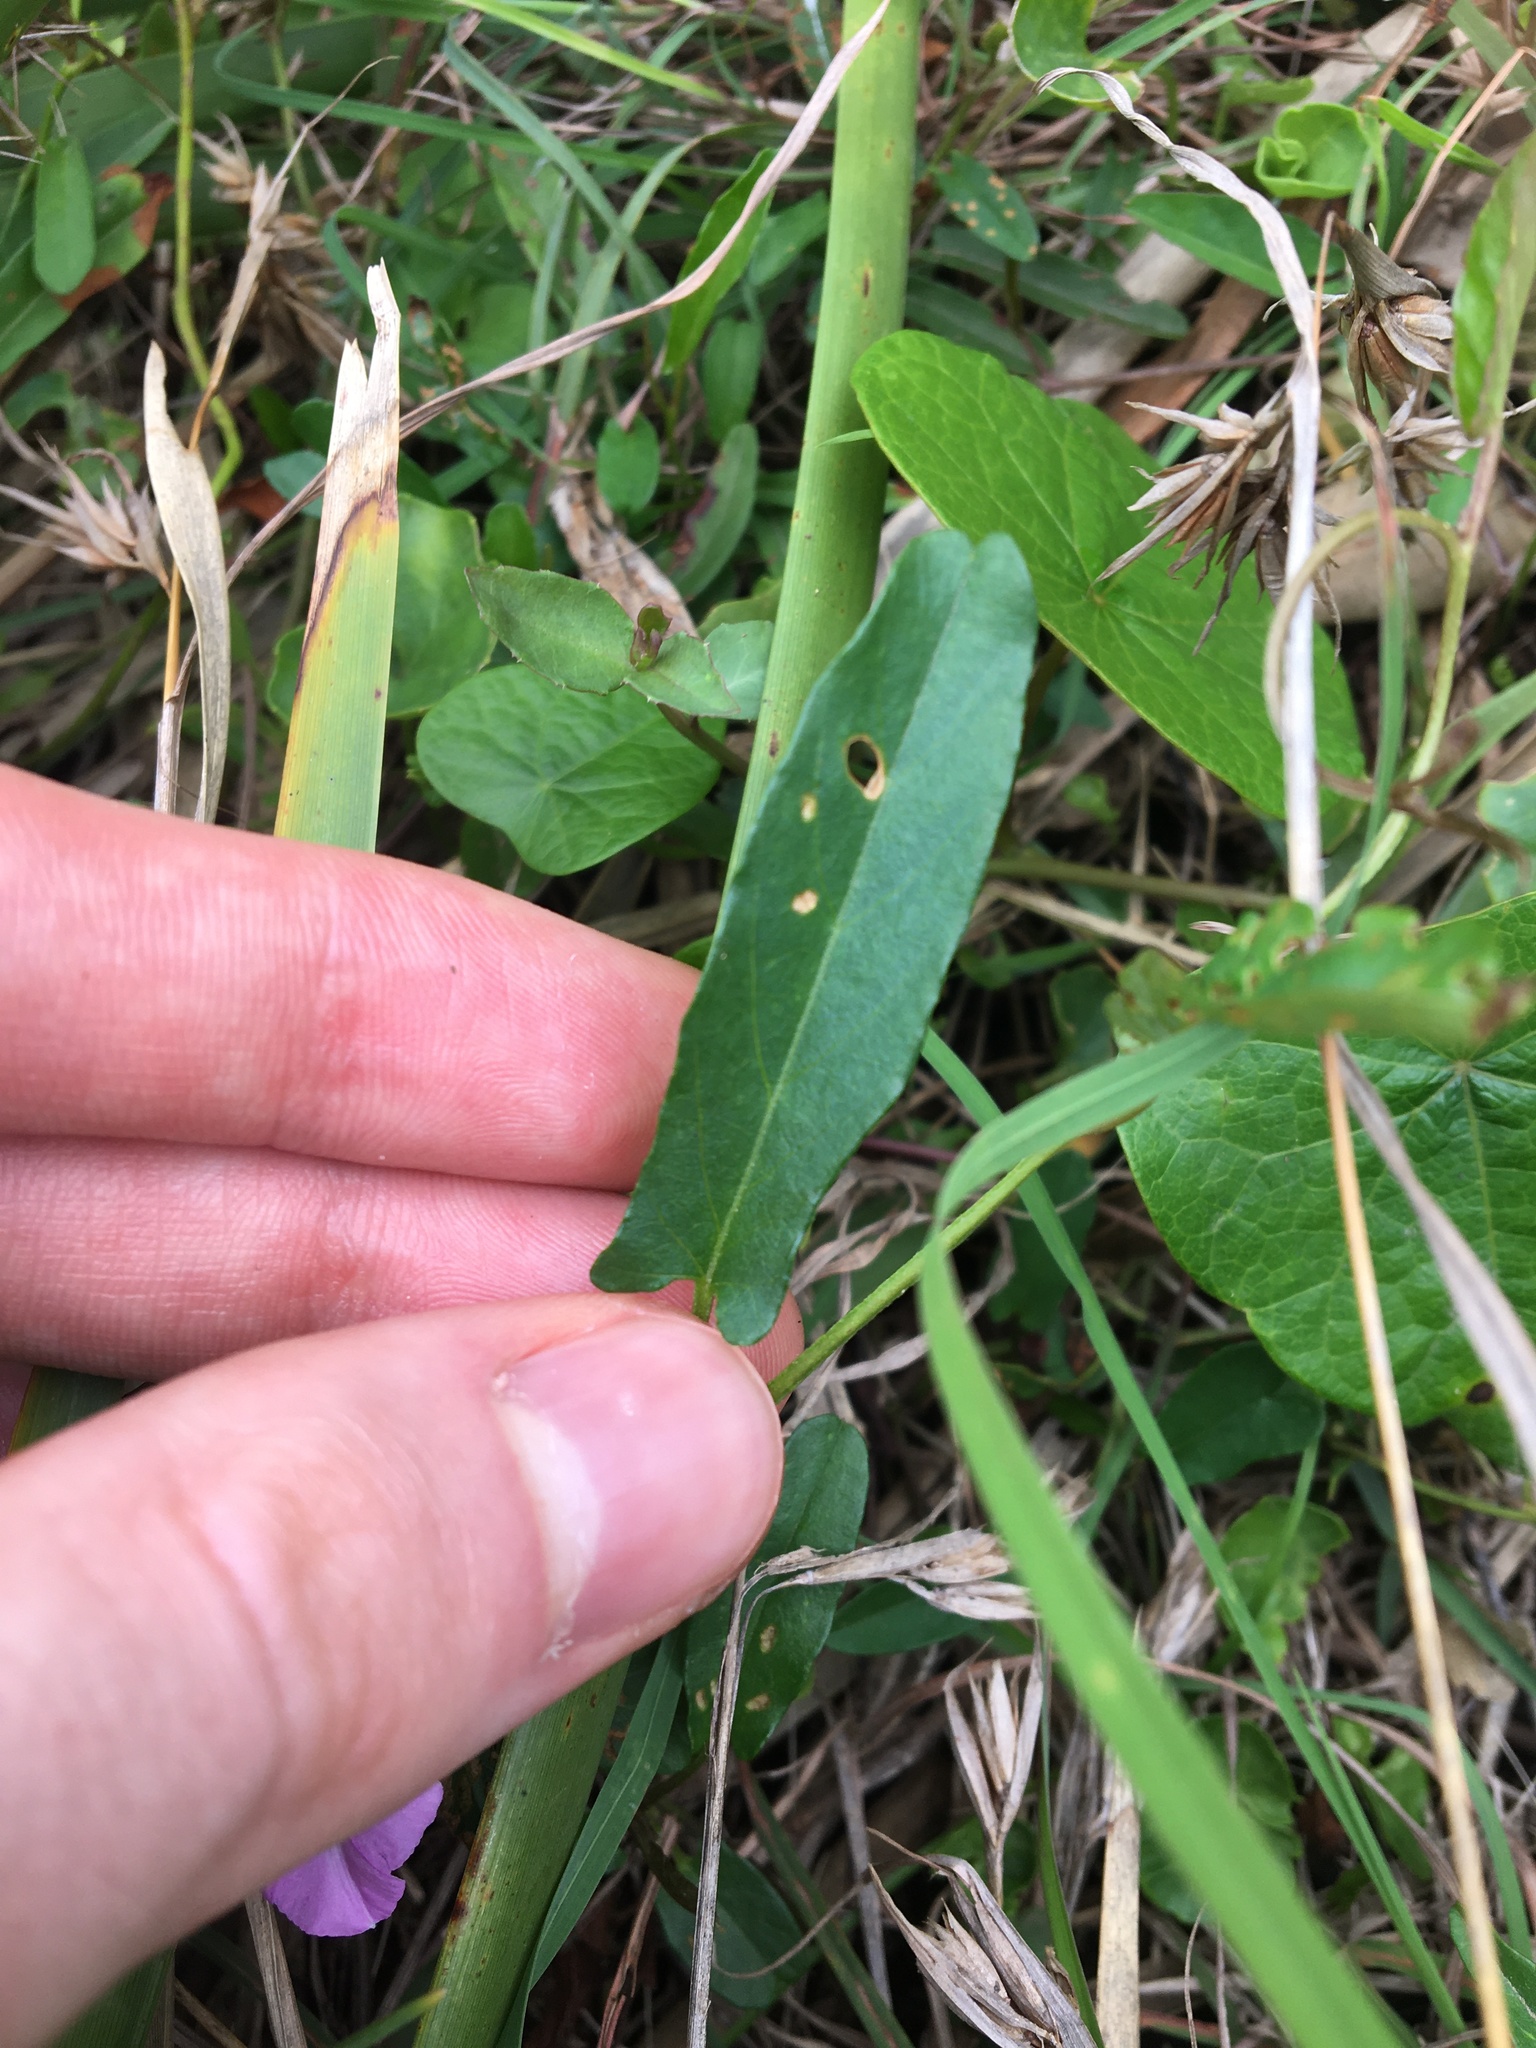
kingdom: Plantae
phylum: Tracheophyta
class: Magnoliopsida
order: Solanales
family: Convolvulaceae
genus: Polymeria
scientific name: Polymeria calycina
